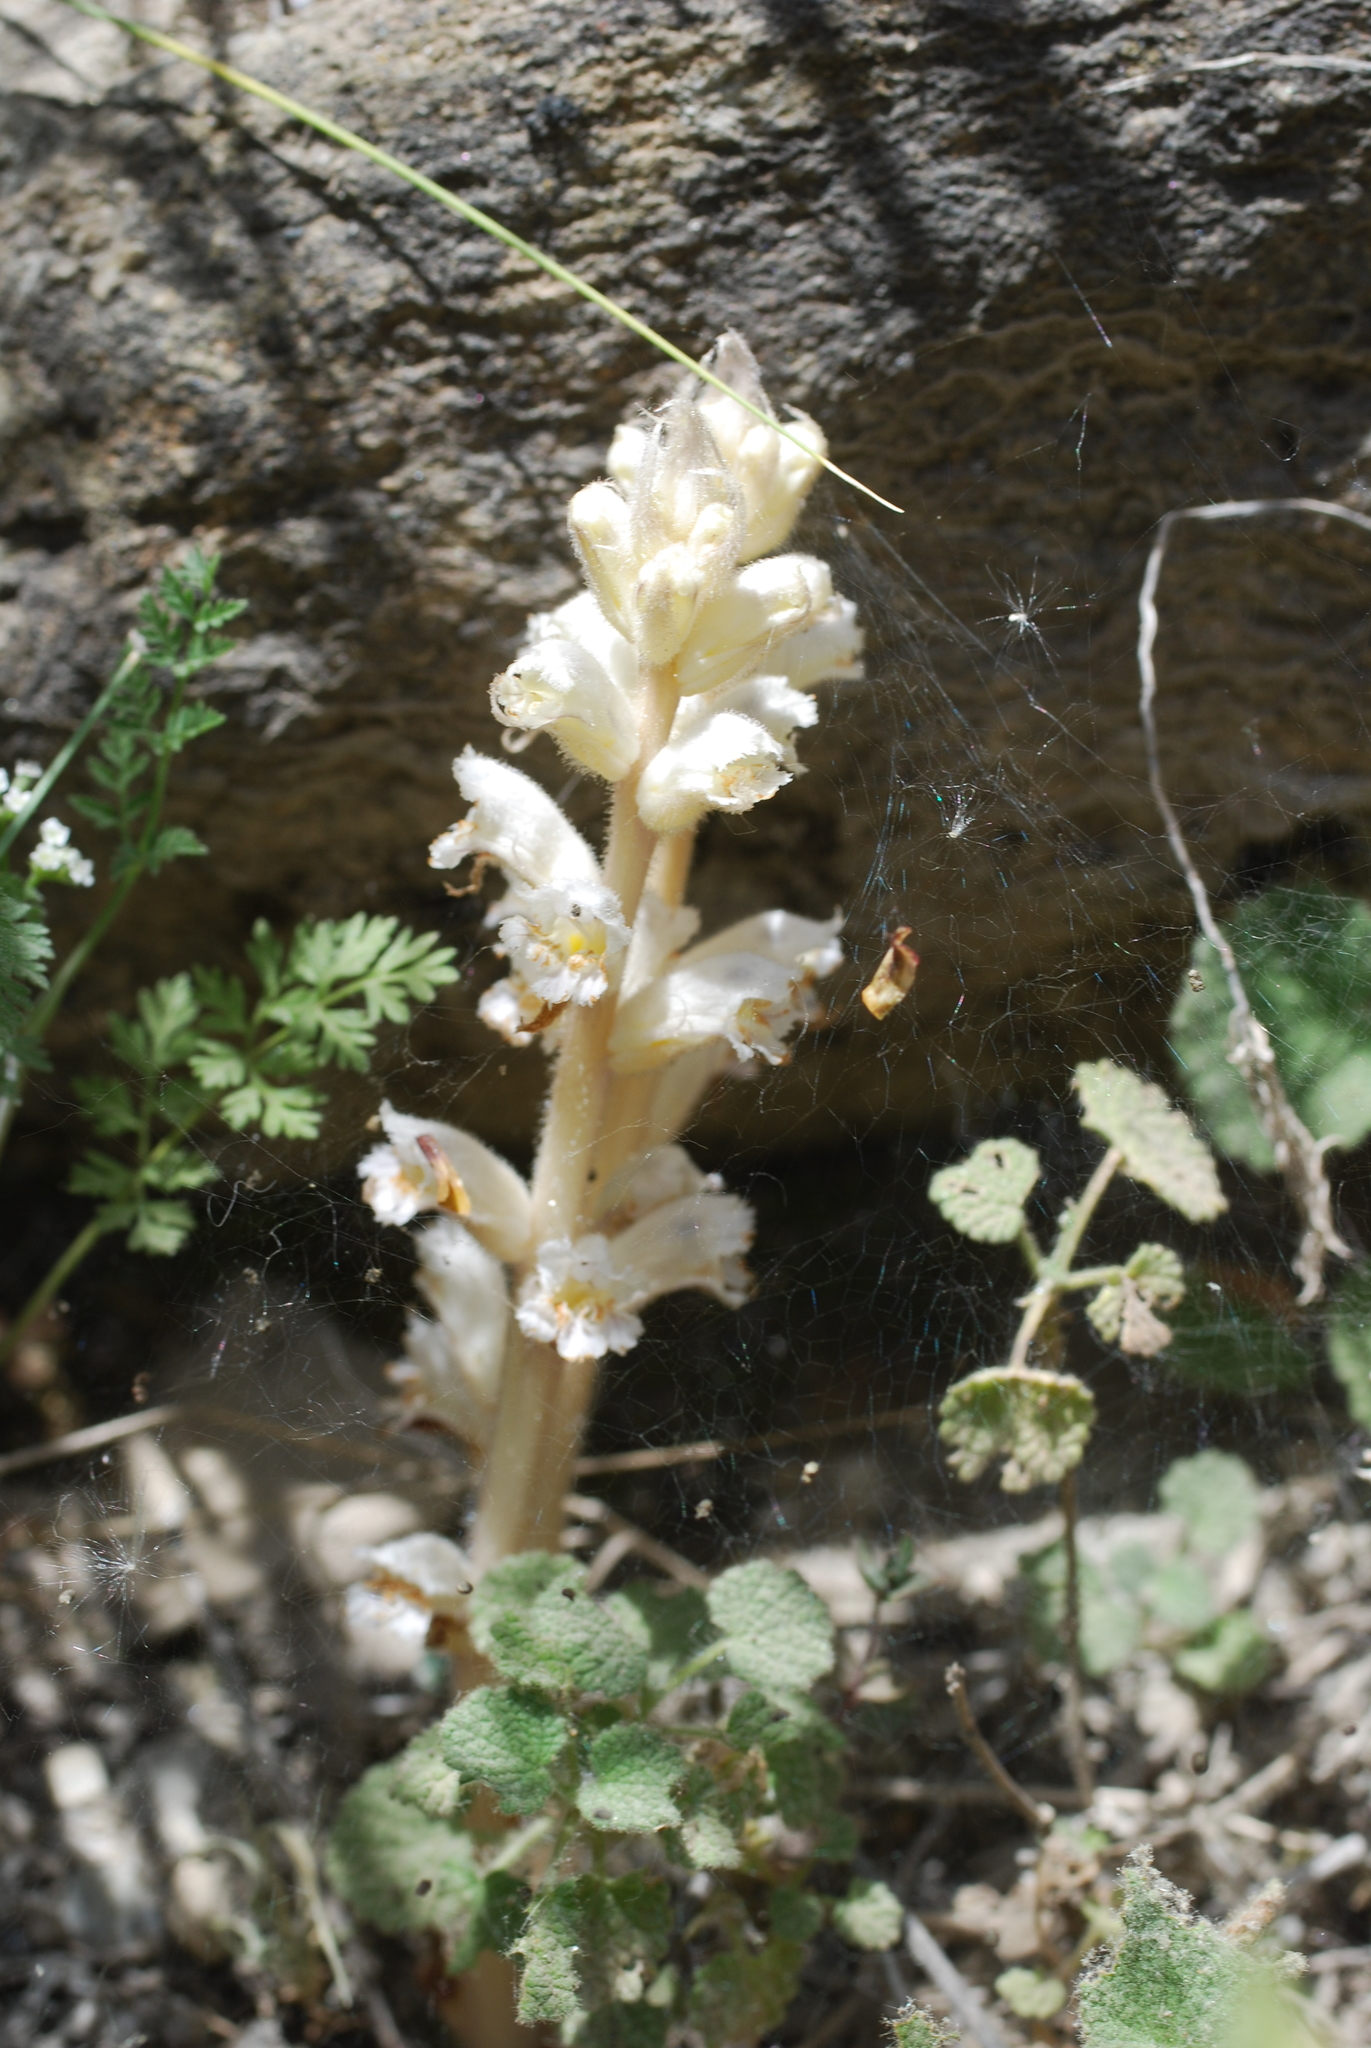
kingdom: Plantae
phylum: Tracheophyta
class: Magnoliopsida
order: Lamiales
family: Orobanchaceae
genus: Orobanche
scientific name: Orobanche ballotae
